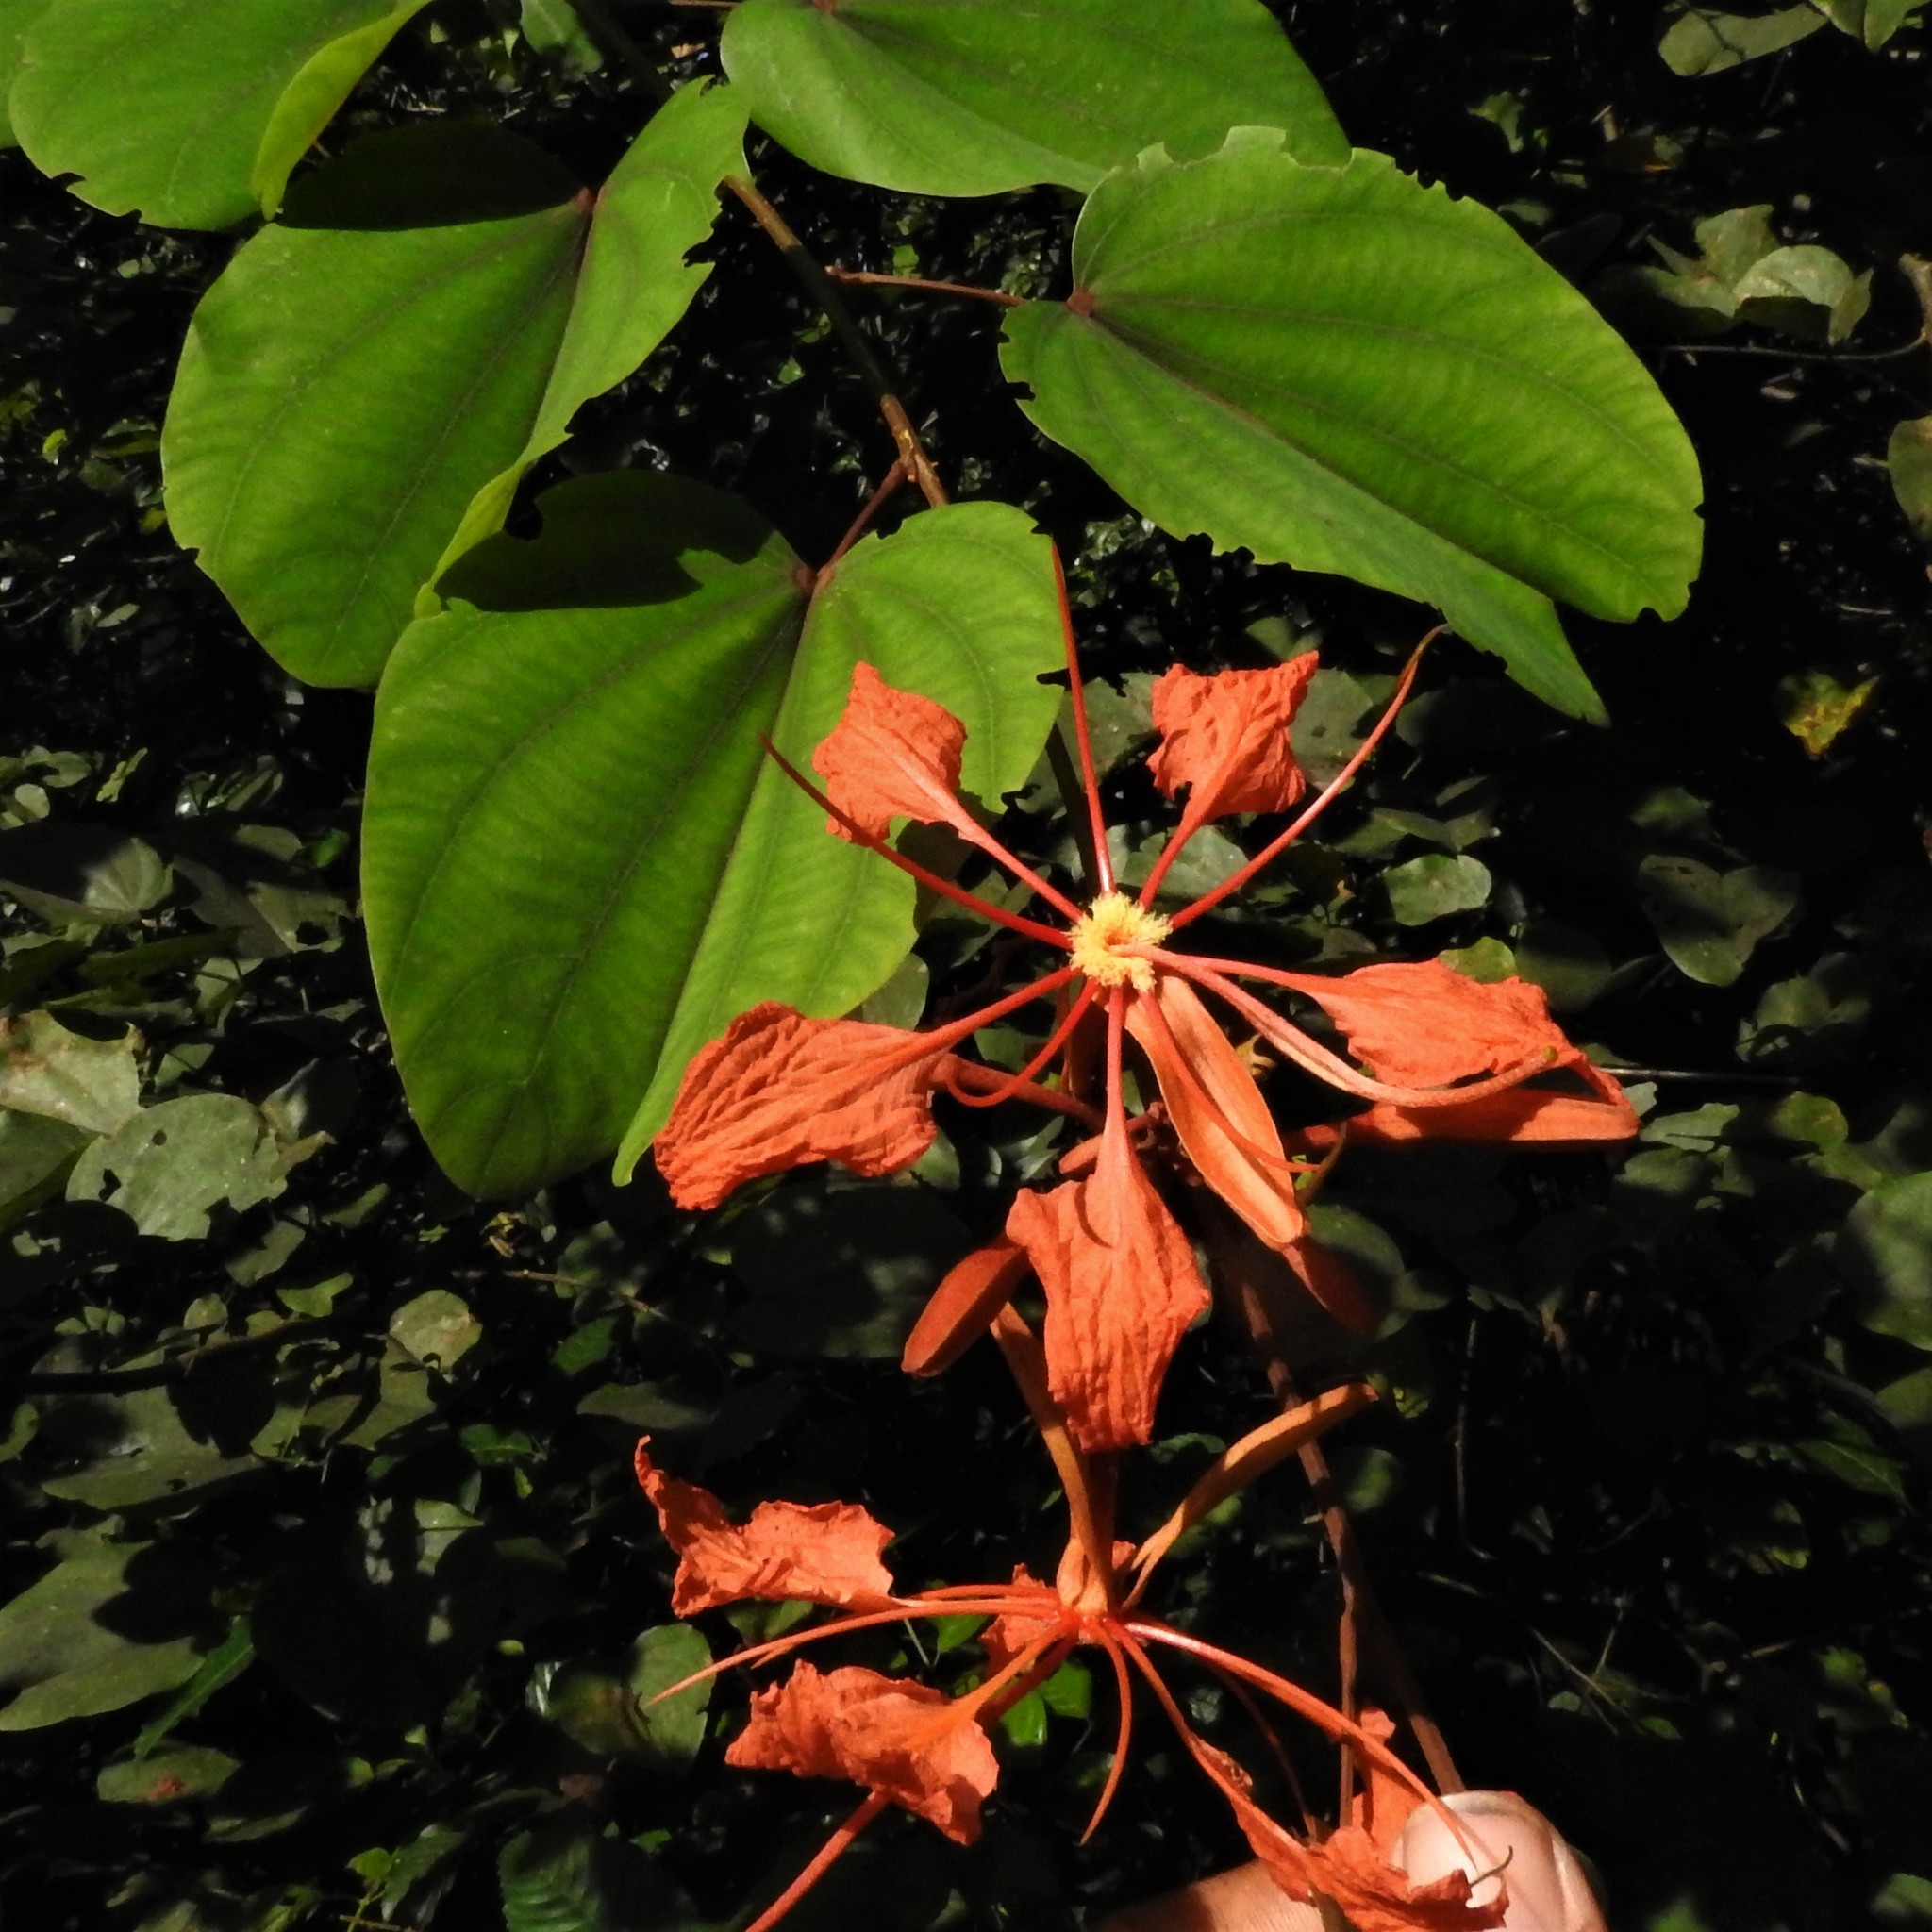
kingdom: Plantae
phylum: Tracheophyta
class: Magnoliopsida
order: Fabales
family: Fabaceae
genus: Bauhinia
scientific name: Bauhinia phoenicea
